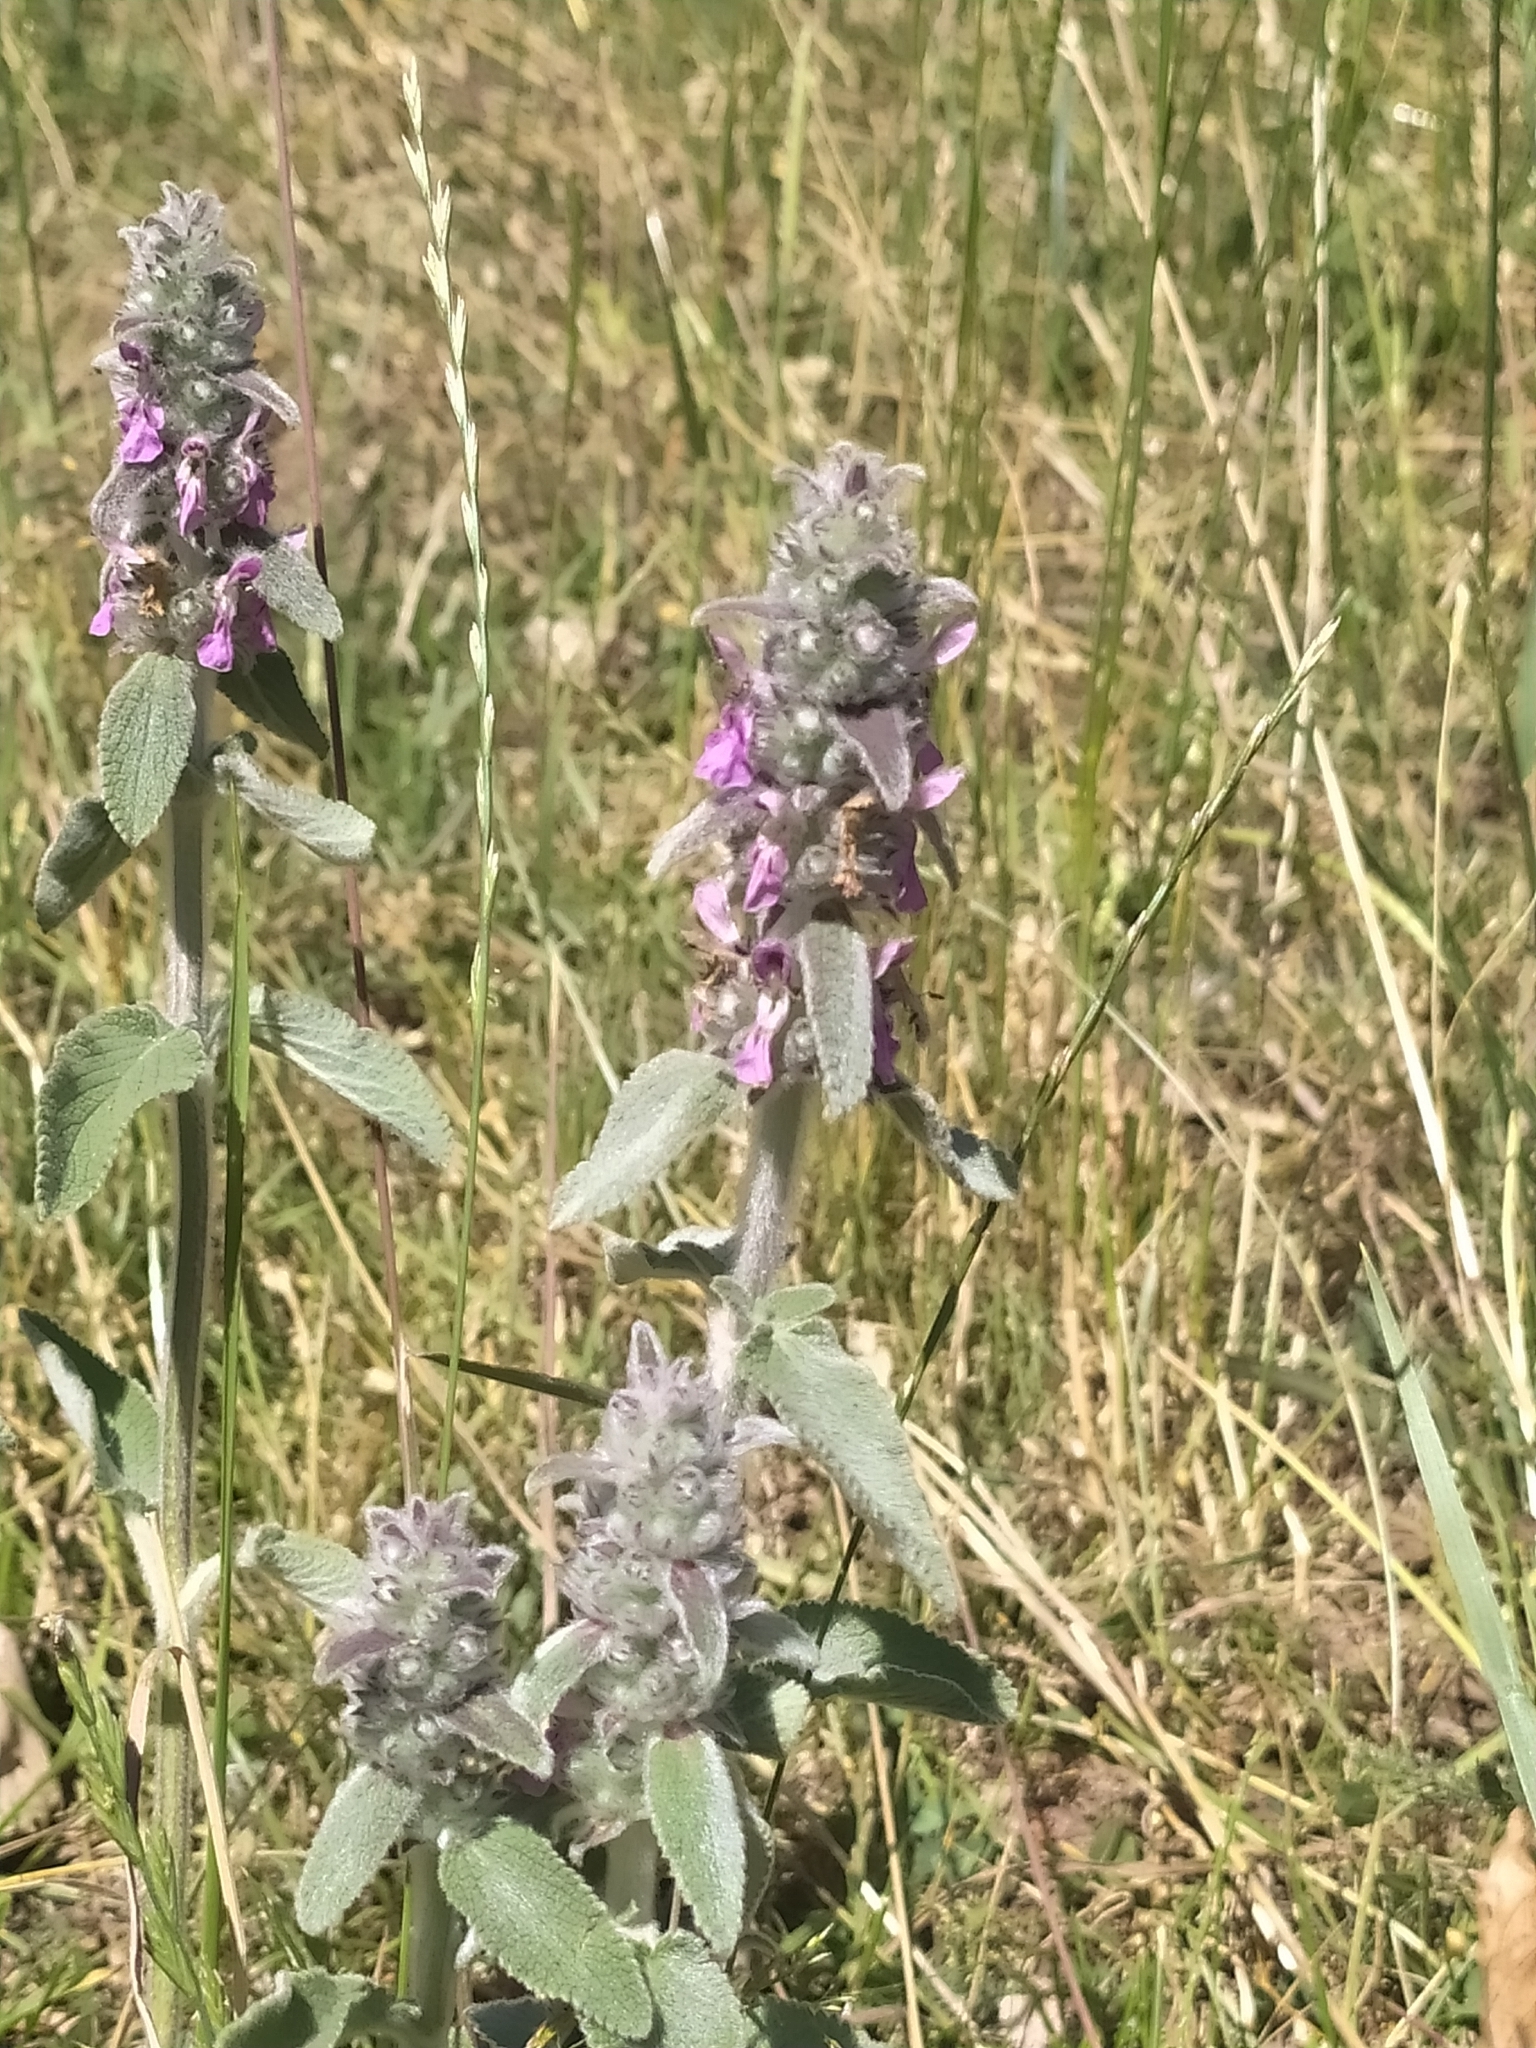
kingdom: Plantae
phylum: Tracheophyta
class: Magnoliopsida
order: Lamiales
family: Lamiaceae
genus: Stachys
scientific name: Stachys germanica
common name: Downy woundwort
